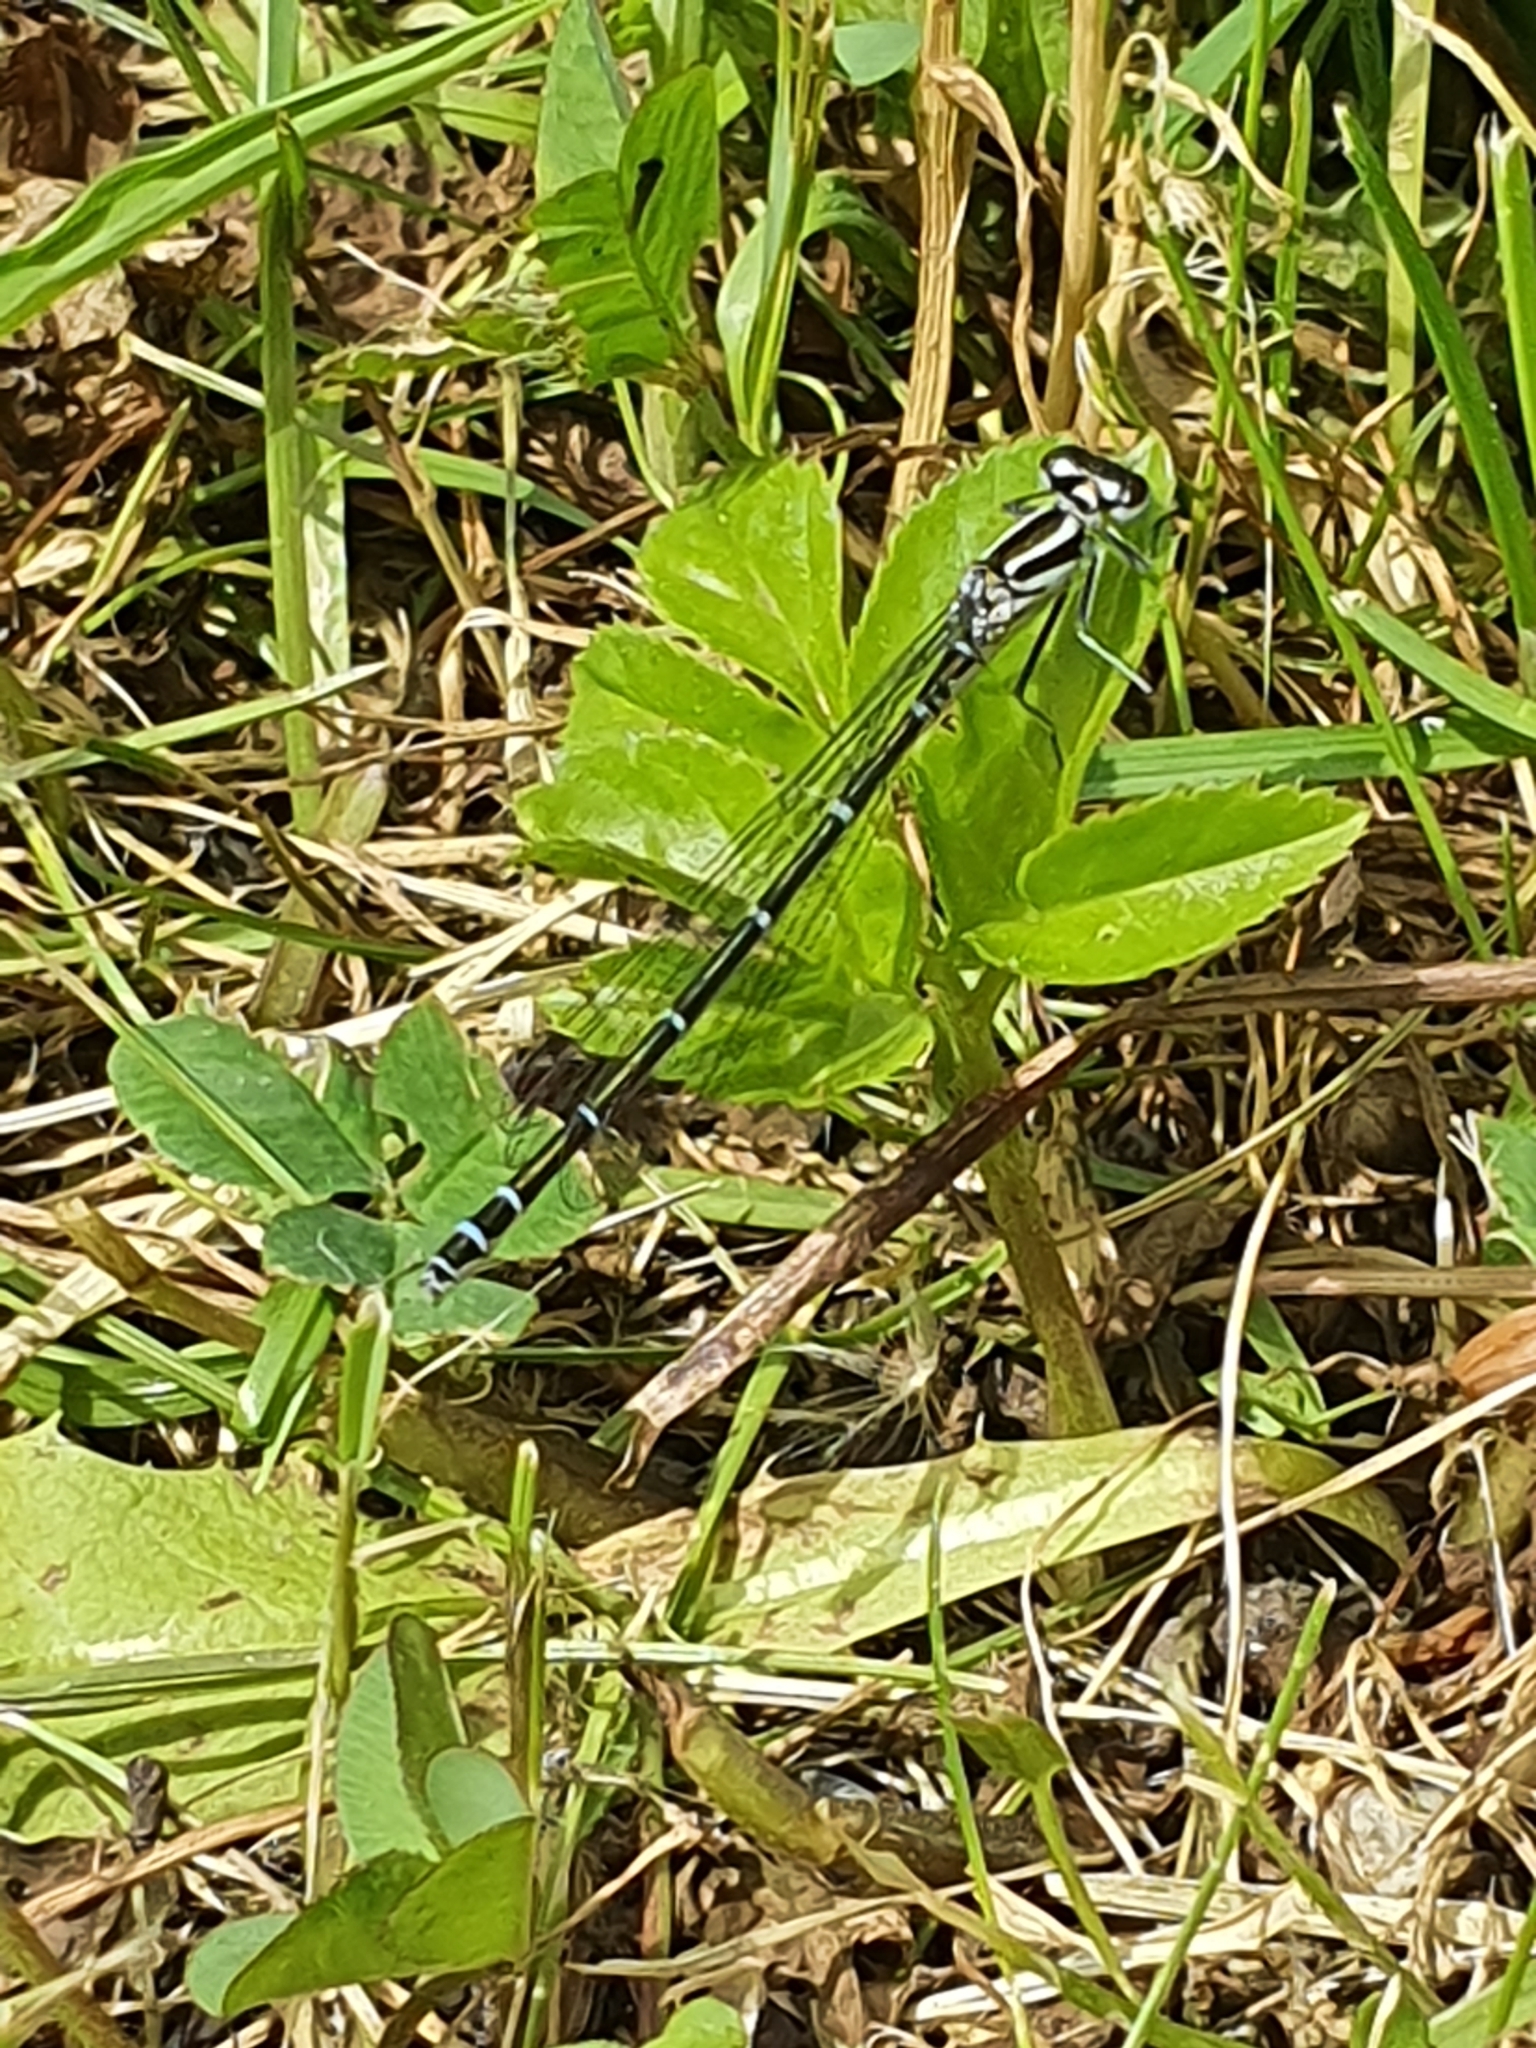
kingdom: Animalia
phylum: Arthropoda
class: Insecta
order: Odonata
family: Coenagrionidae
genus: Coenagrion
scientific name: Coenagrion puella
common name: Azure damselfly
